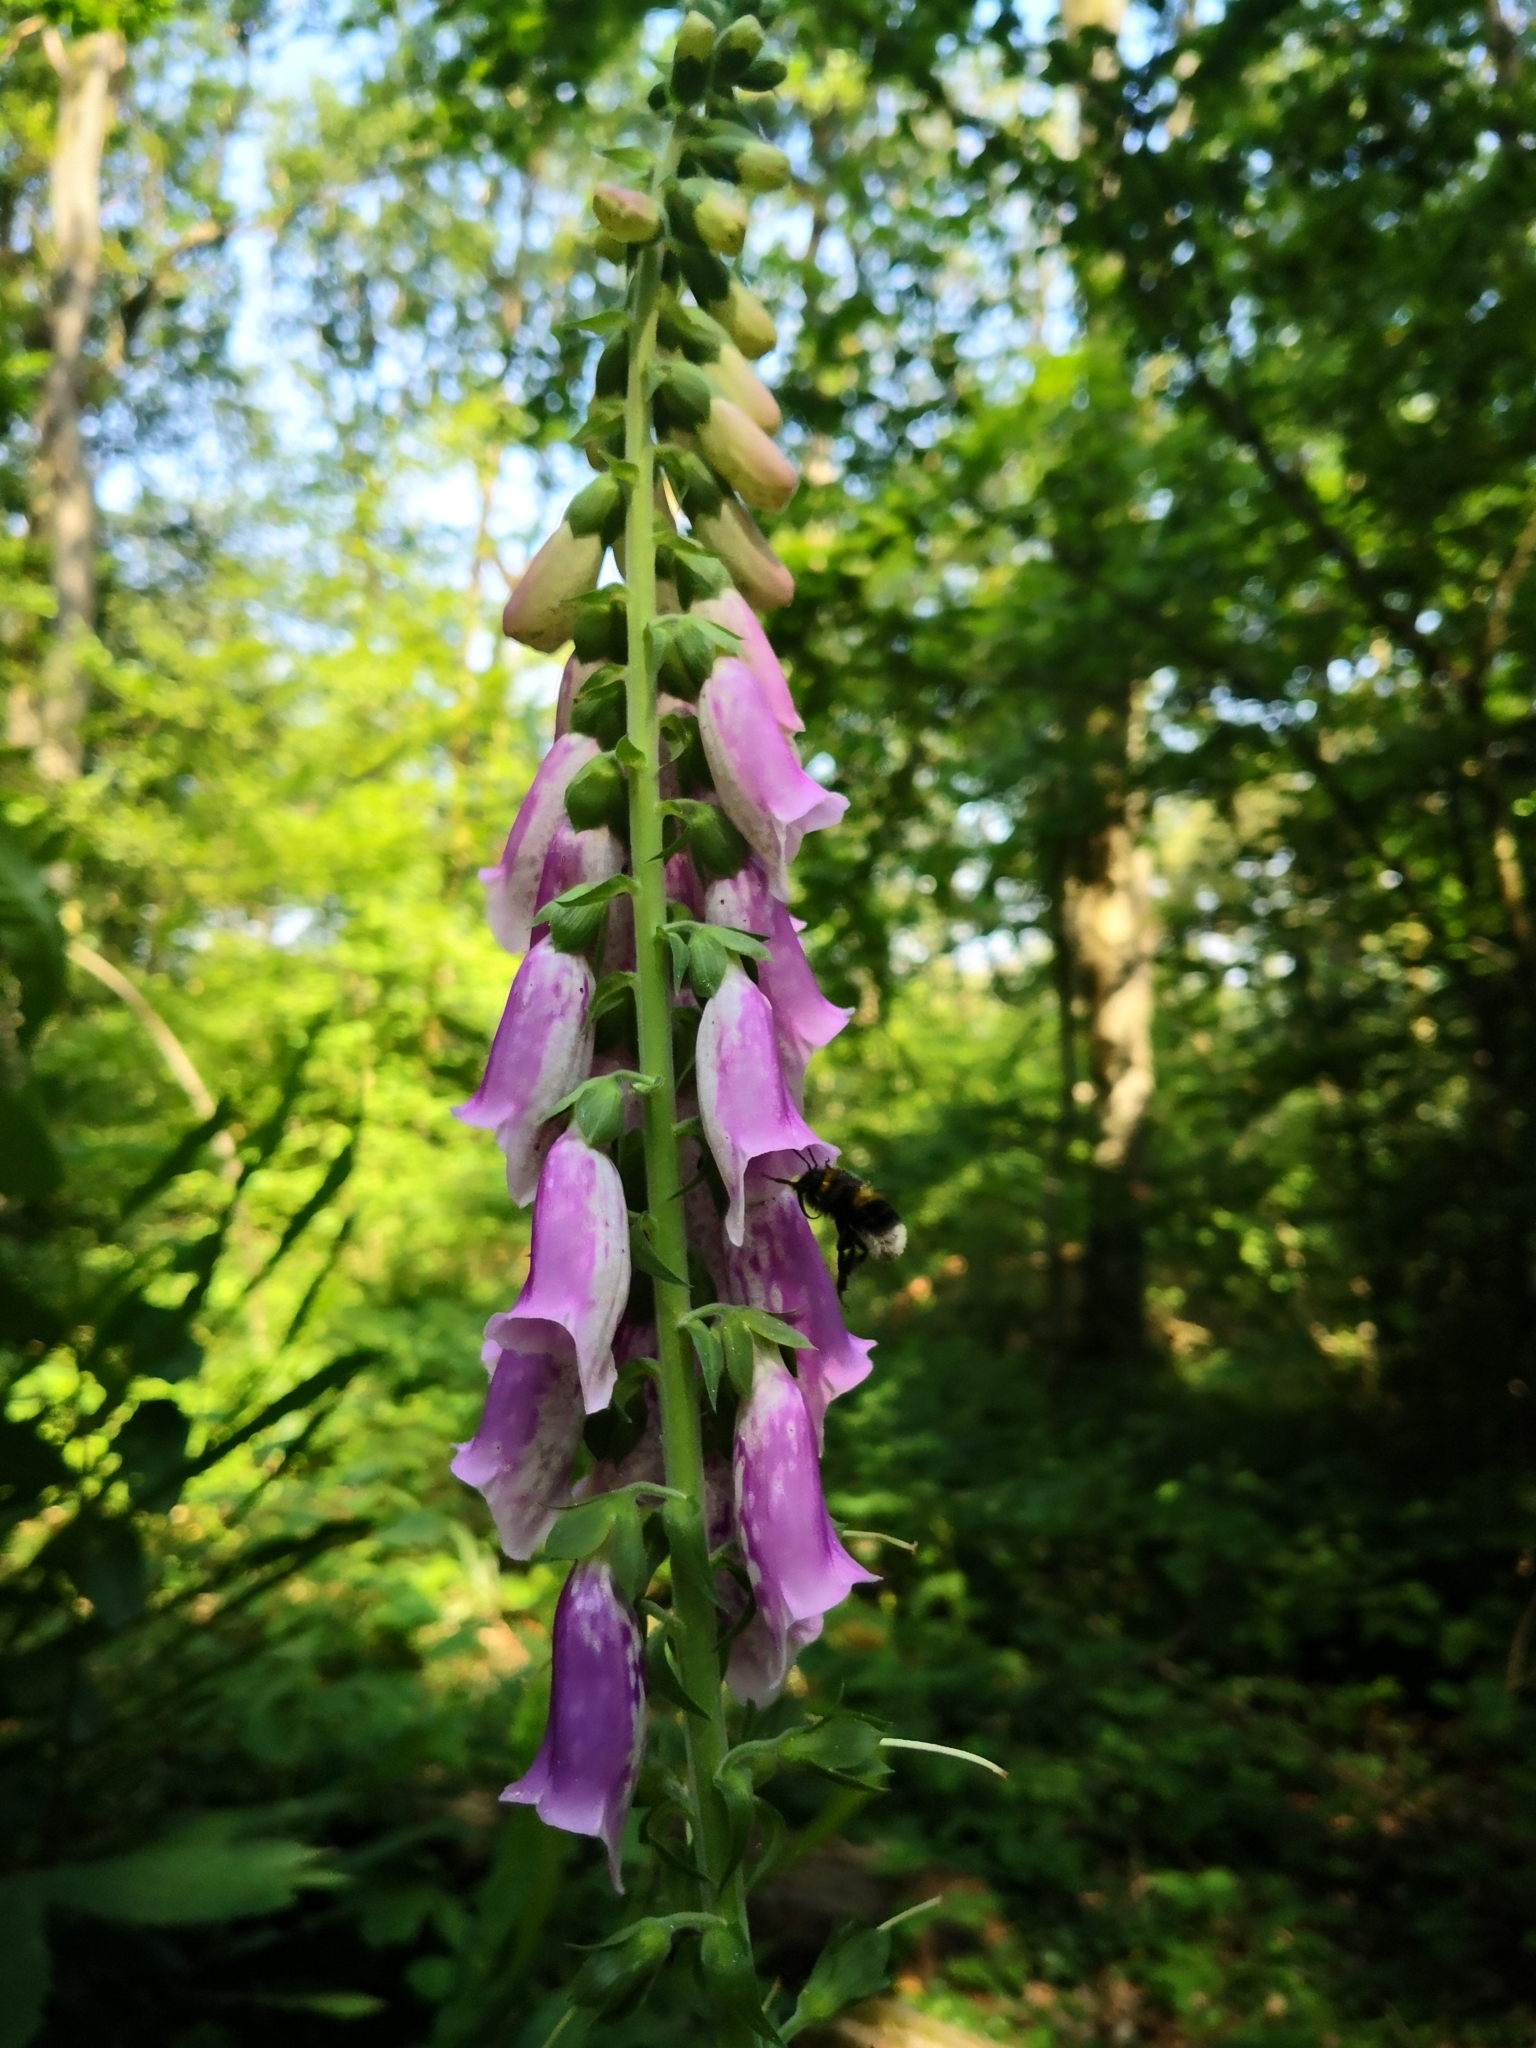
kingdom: Plantae
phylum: Tracheophyta
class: Magnoliopsida
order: Lamiales
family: Plantaginaceae
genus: Digitalis
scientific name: Digitalis purpurea
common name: Foxglove
